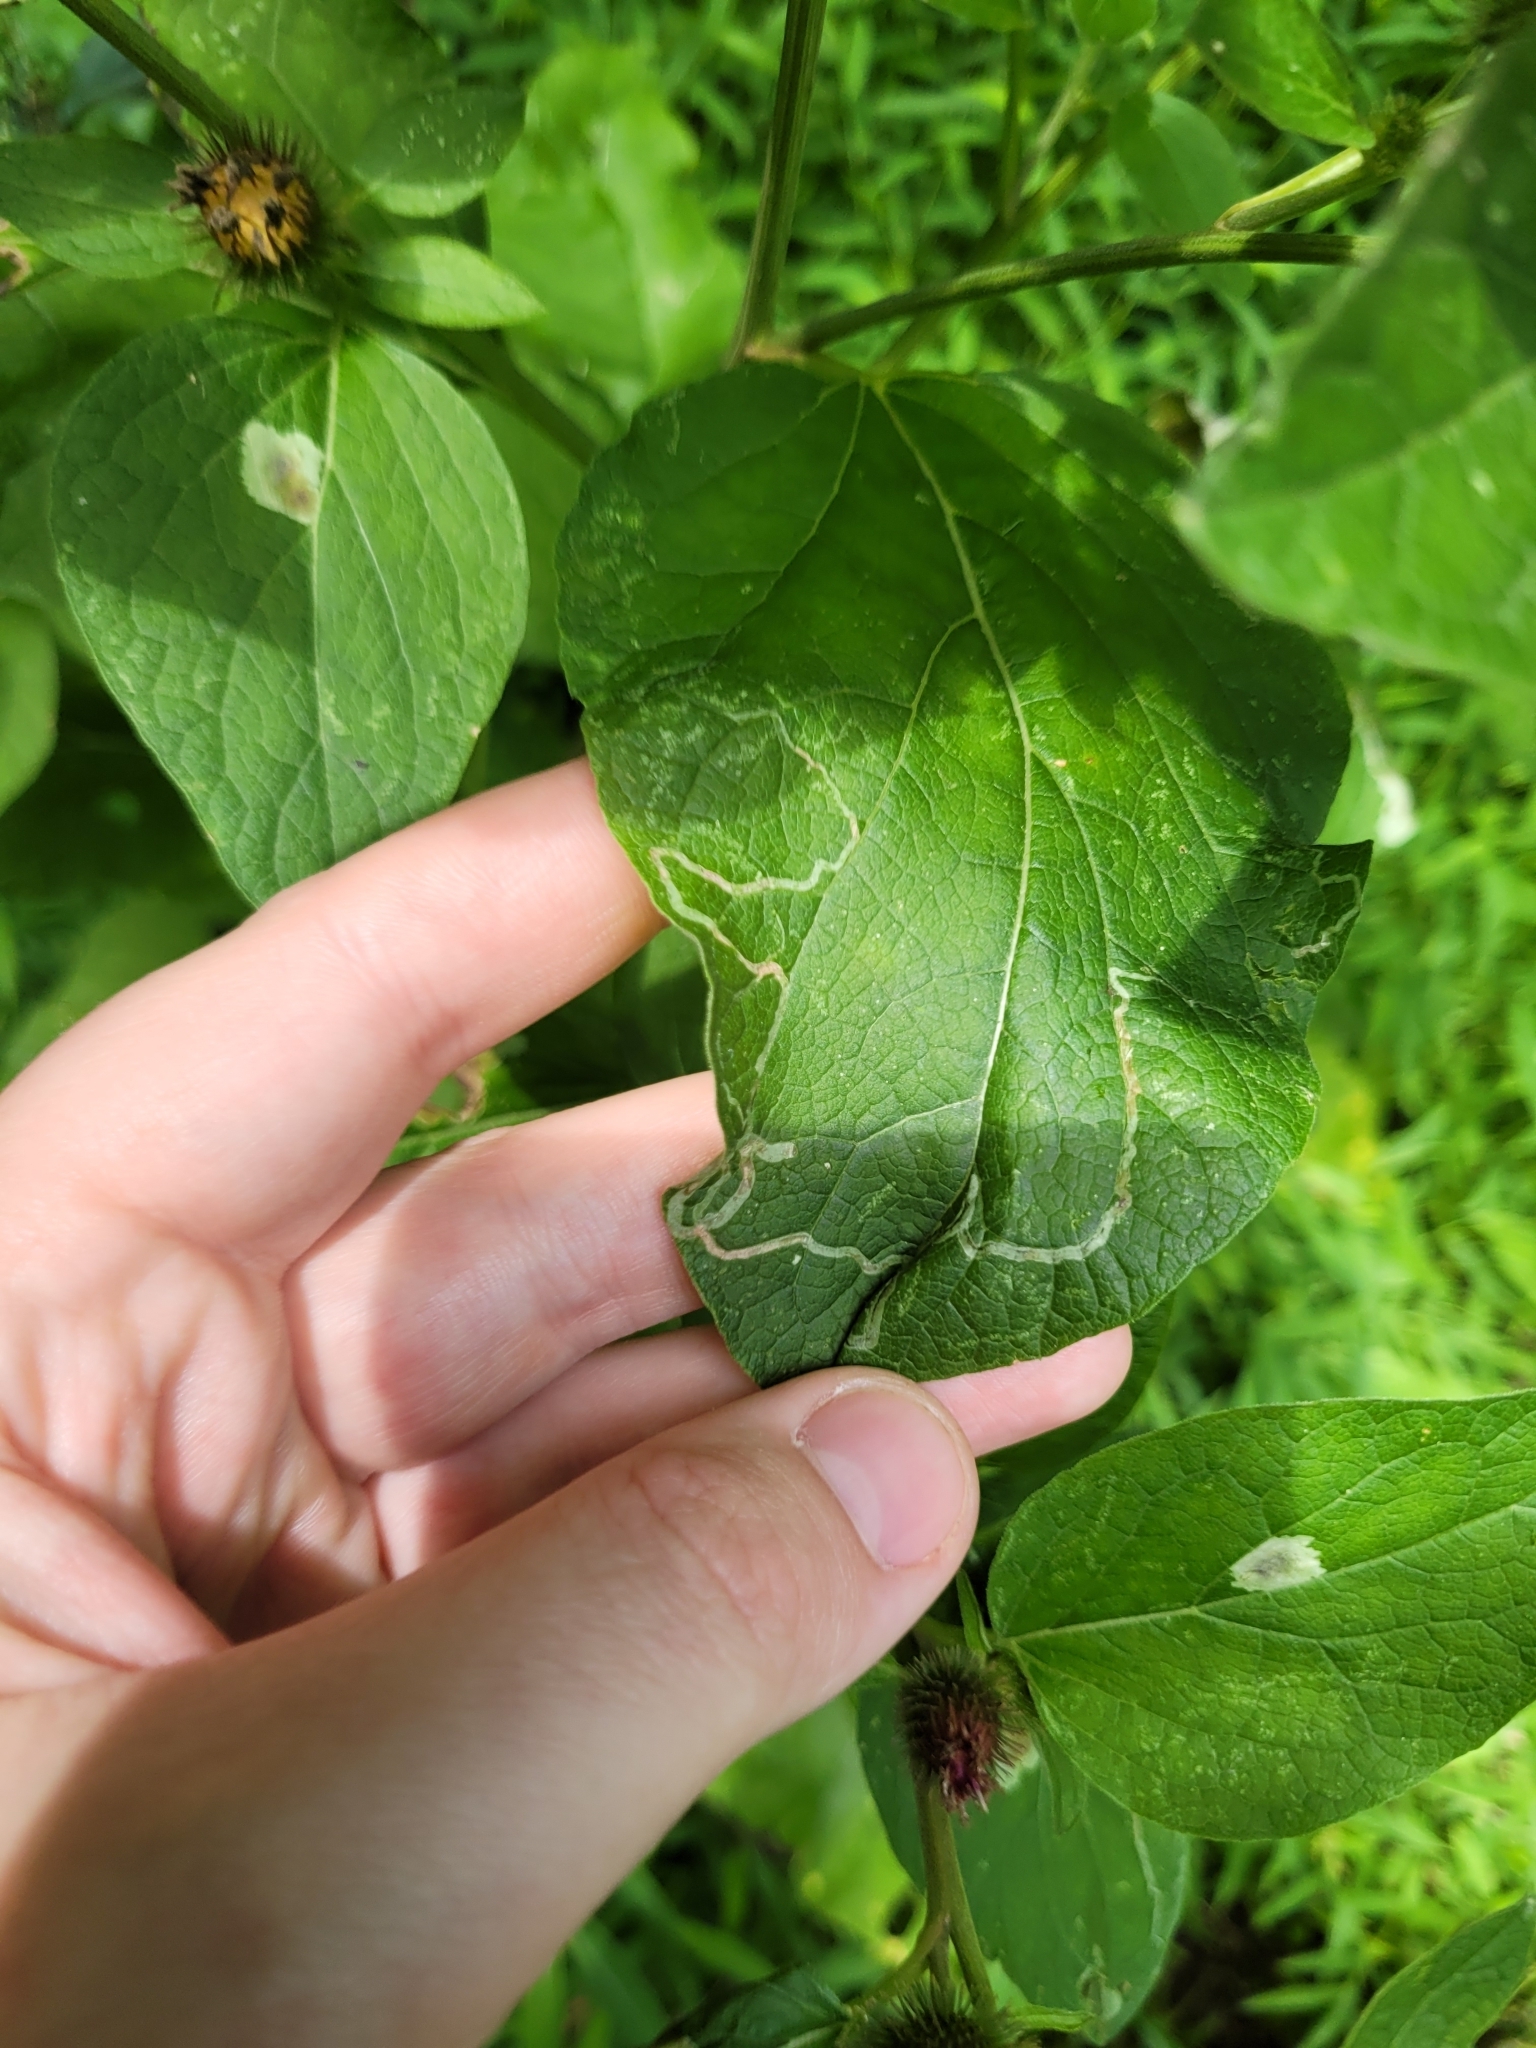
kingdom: Animalia
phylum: Arthropoda
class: Insecta
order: Diptera
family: Agromyzidae
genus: Liriomyza
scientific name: Liriomyza arctii
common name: Burdock leafminer
